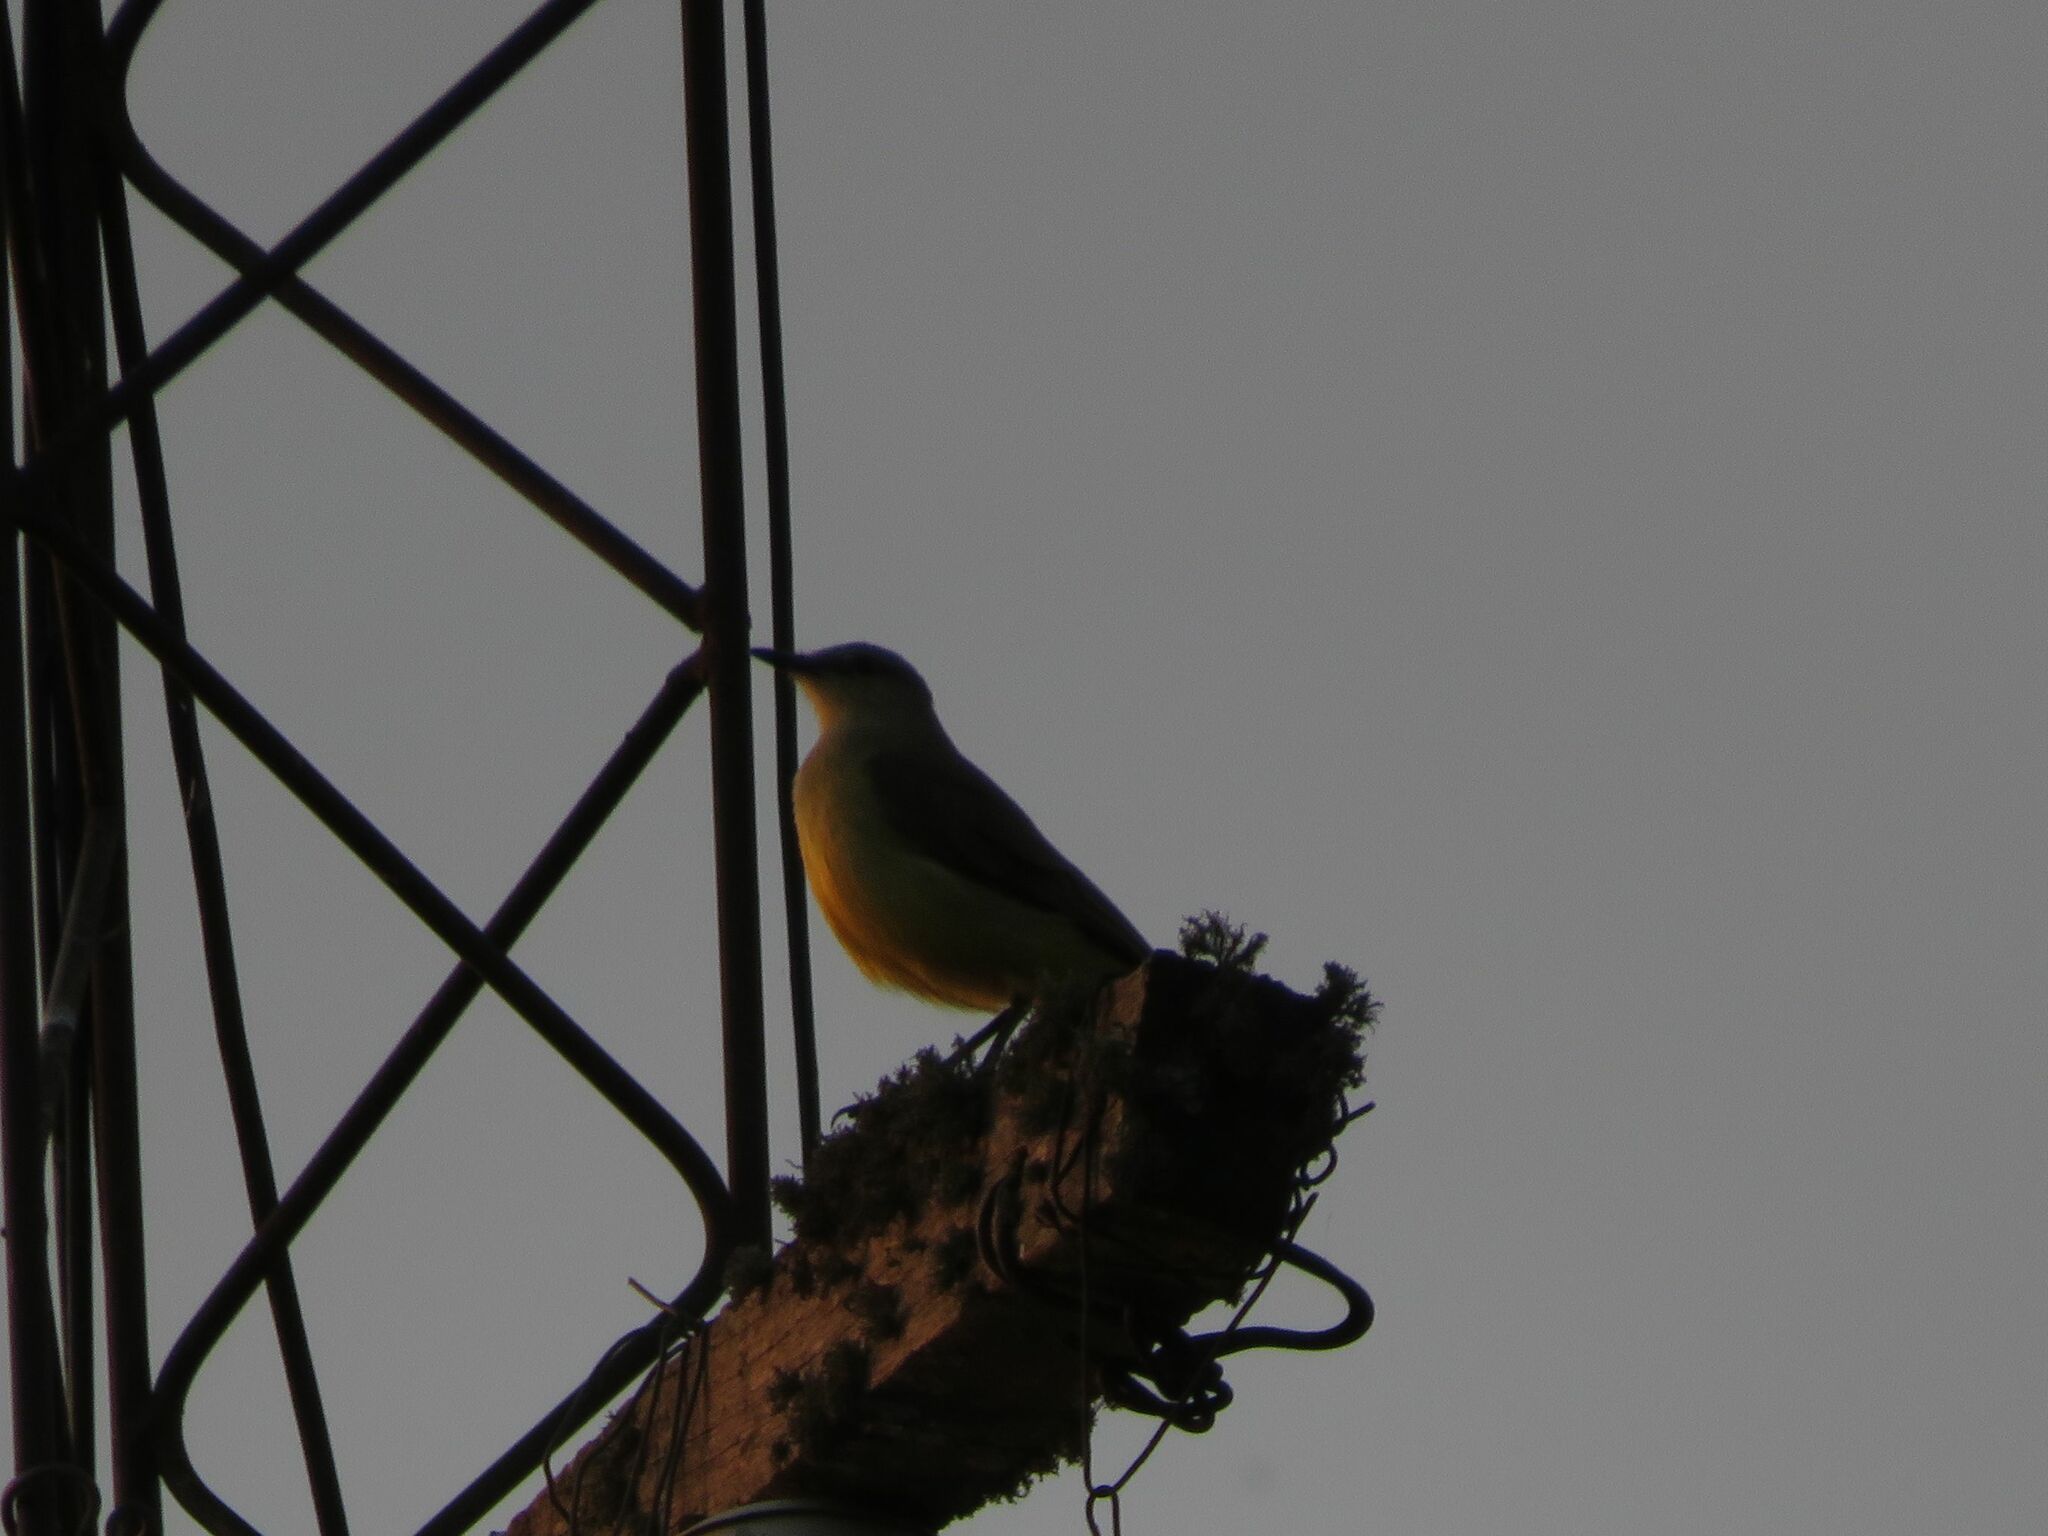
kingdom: Animalia
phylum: Chordata
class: Aves
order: Passeriformes
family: Tyrannidae
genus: Machetornis
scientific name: Machetornis rixosa
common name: Cattle tyrant
